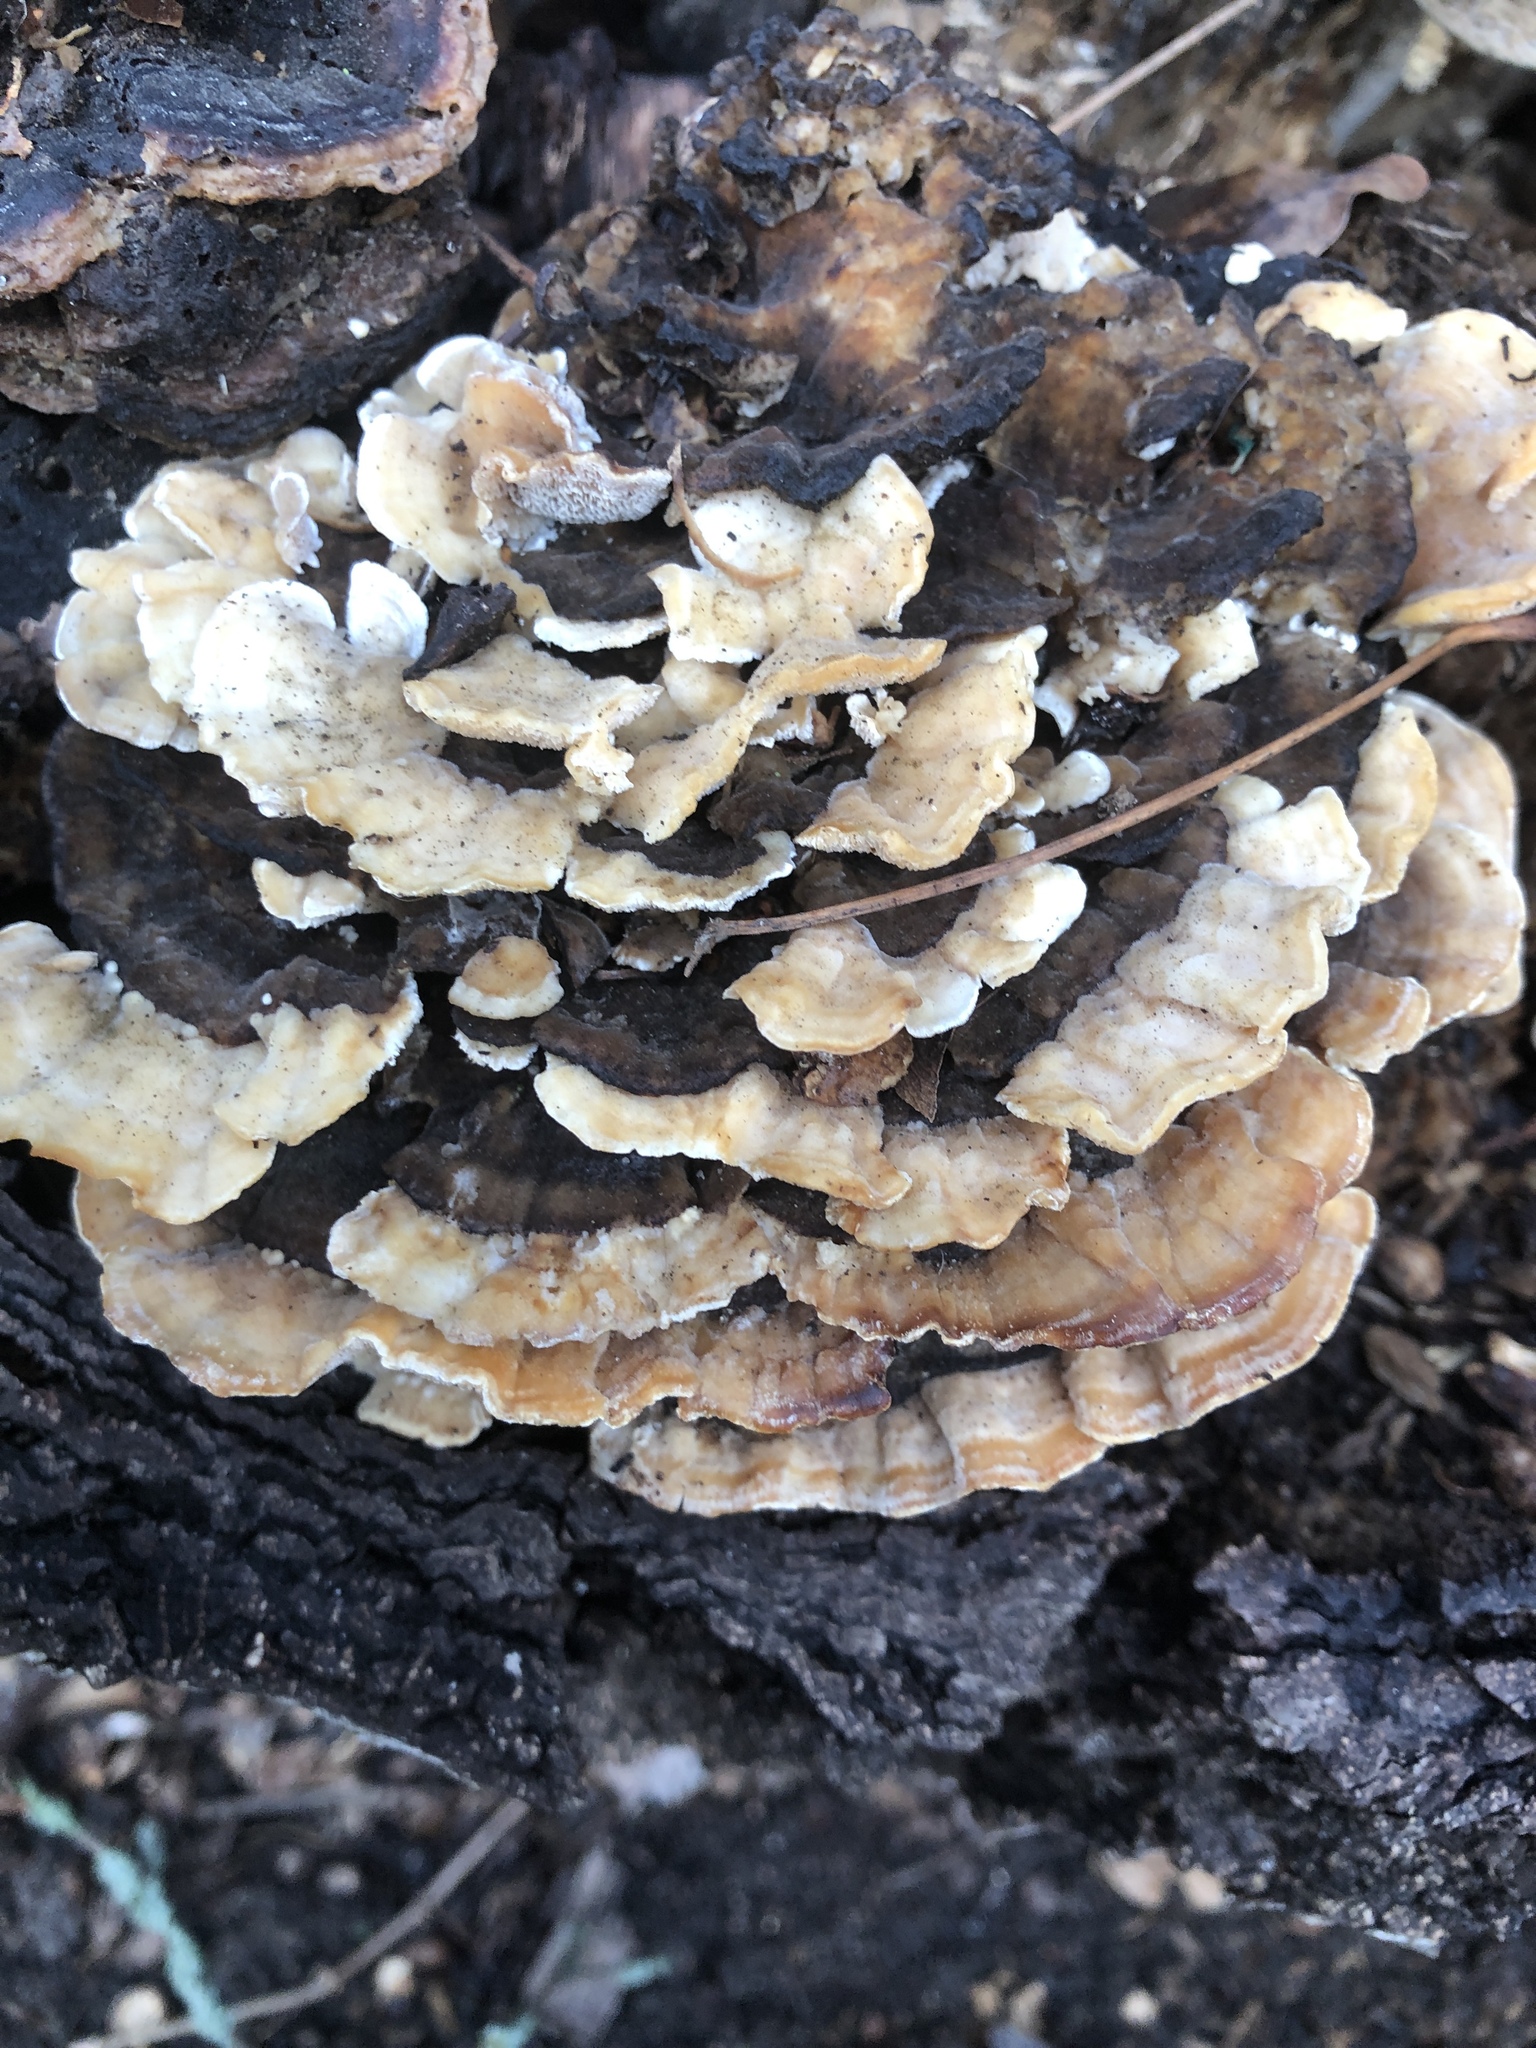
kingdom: Fungi
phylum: Basidiomycota
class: Agaricomycetes
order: Polyporales
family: Polyporaceae
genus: Trametes
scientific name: Trametes versicolor
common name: Turkeytail
